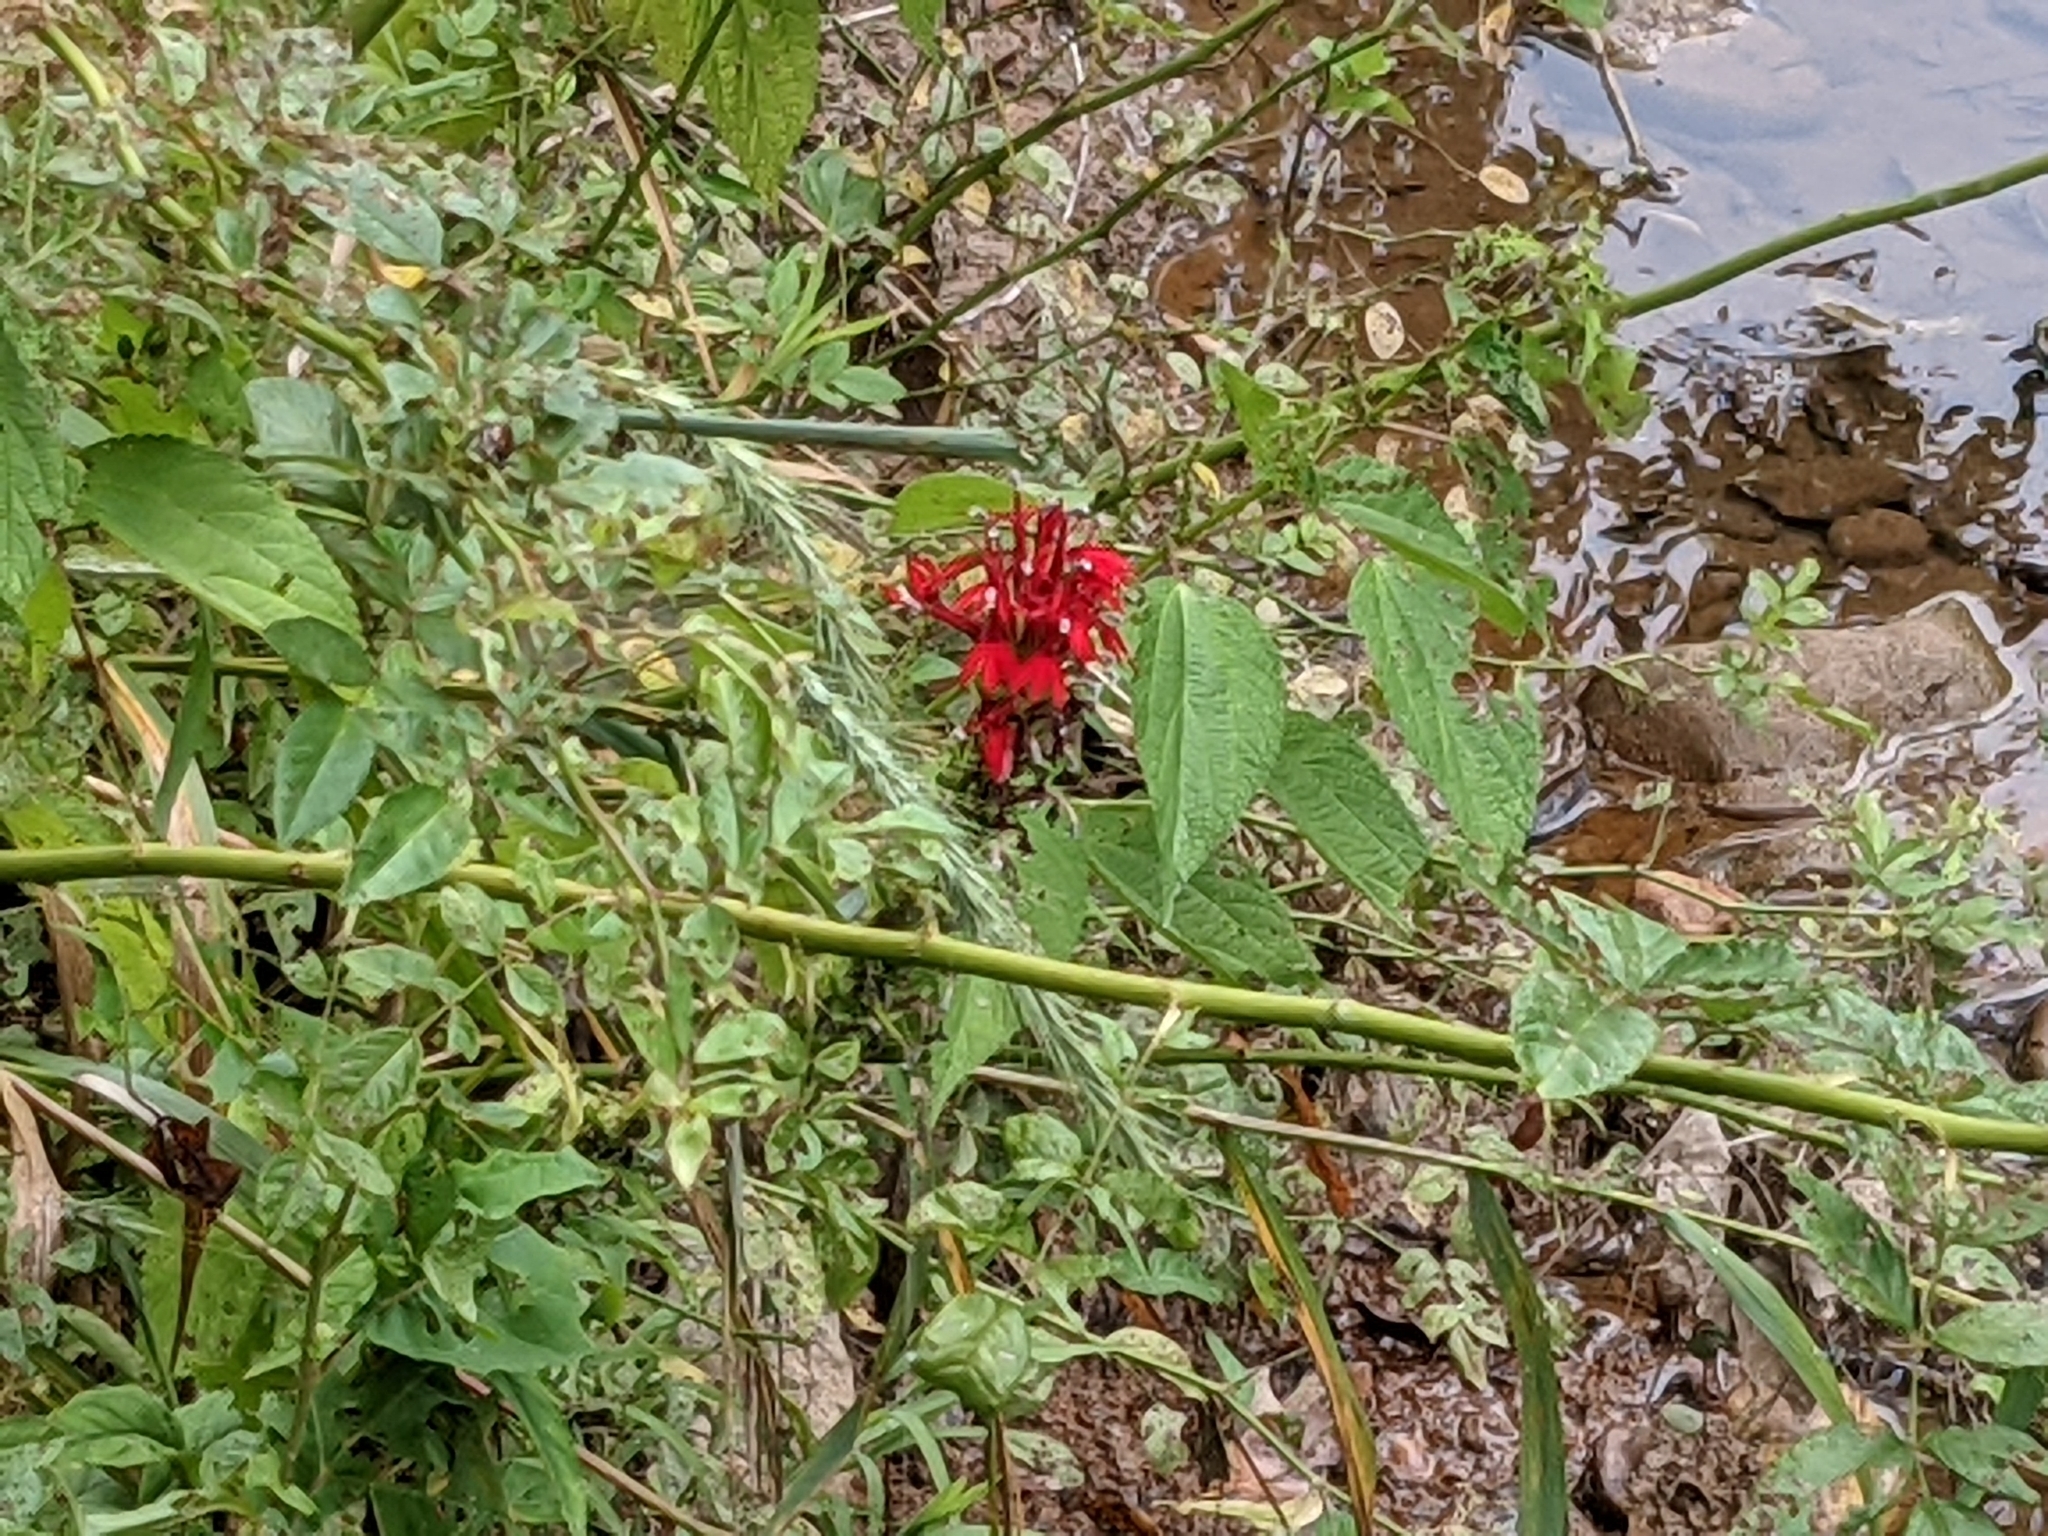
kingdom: Plantae
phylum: Tracheophyta
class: Magnoliopsida
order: Asterales
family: Campanulaceae
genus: Lobelia
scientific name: Lobelia cardinalis
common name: Cardinal flower
